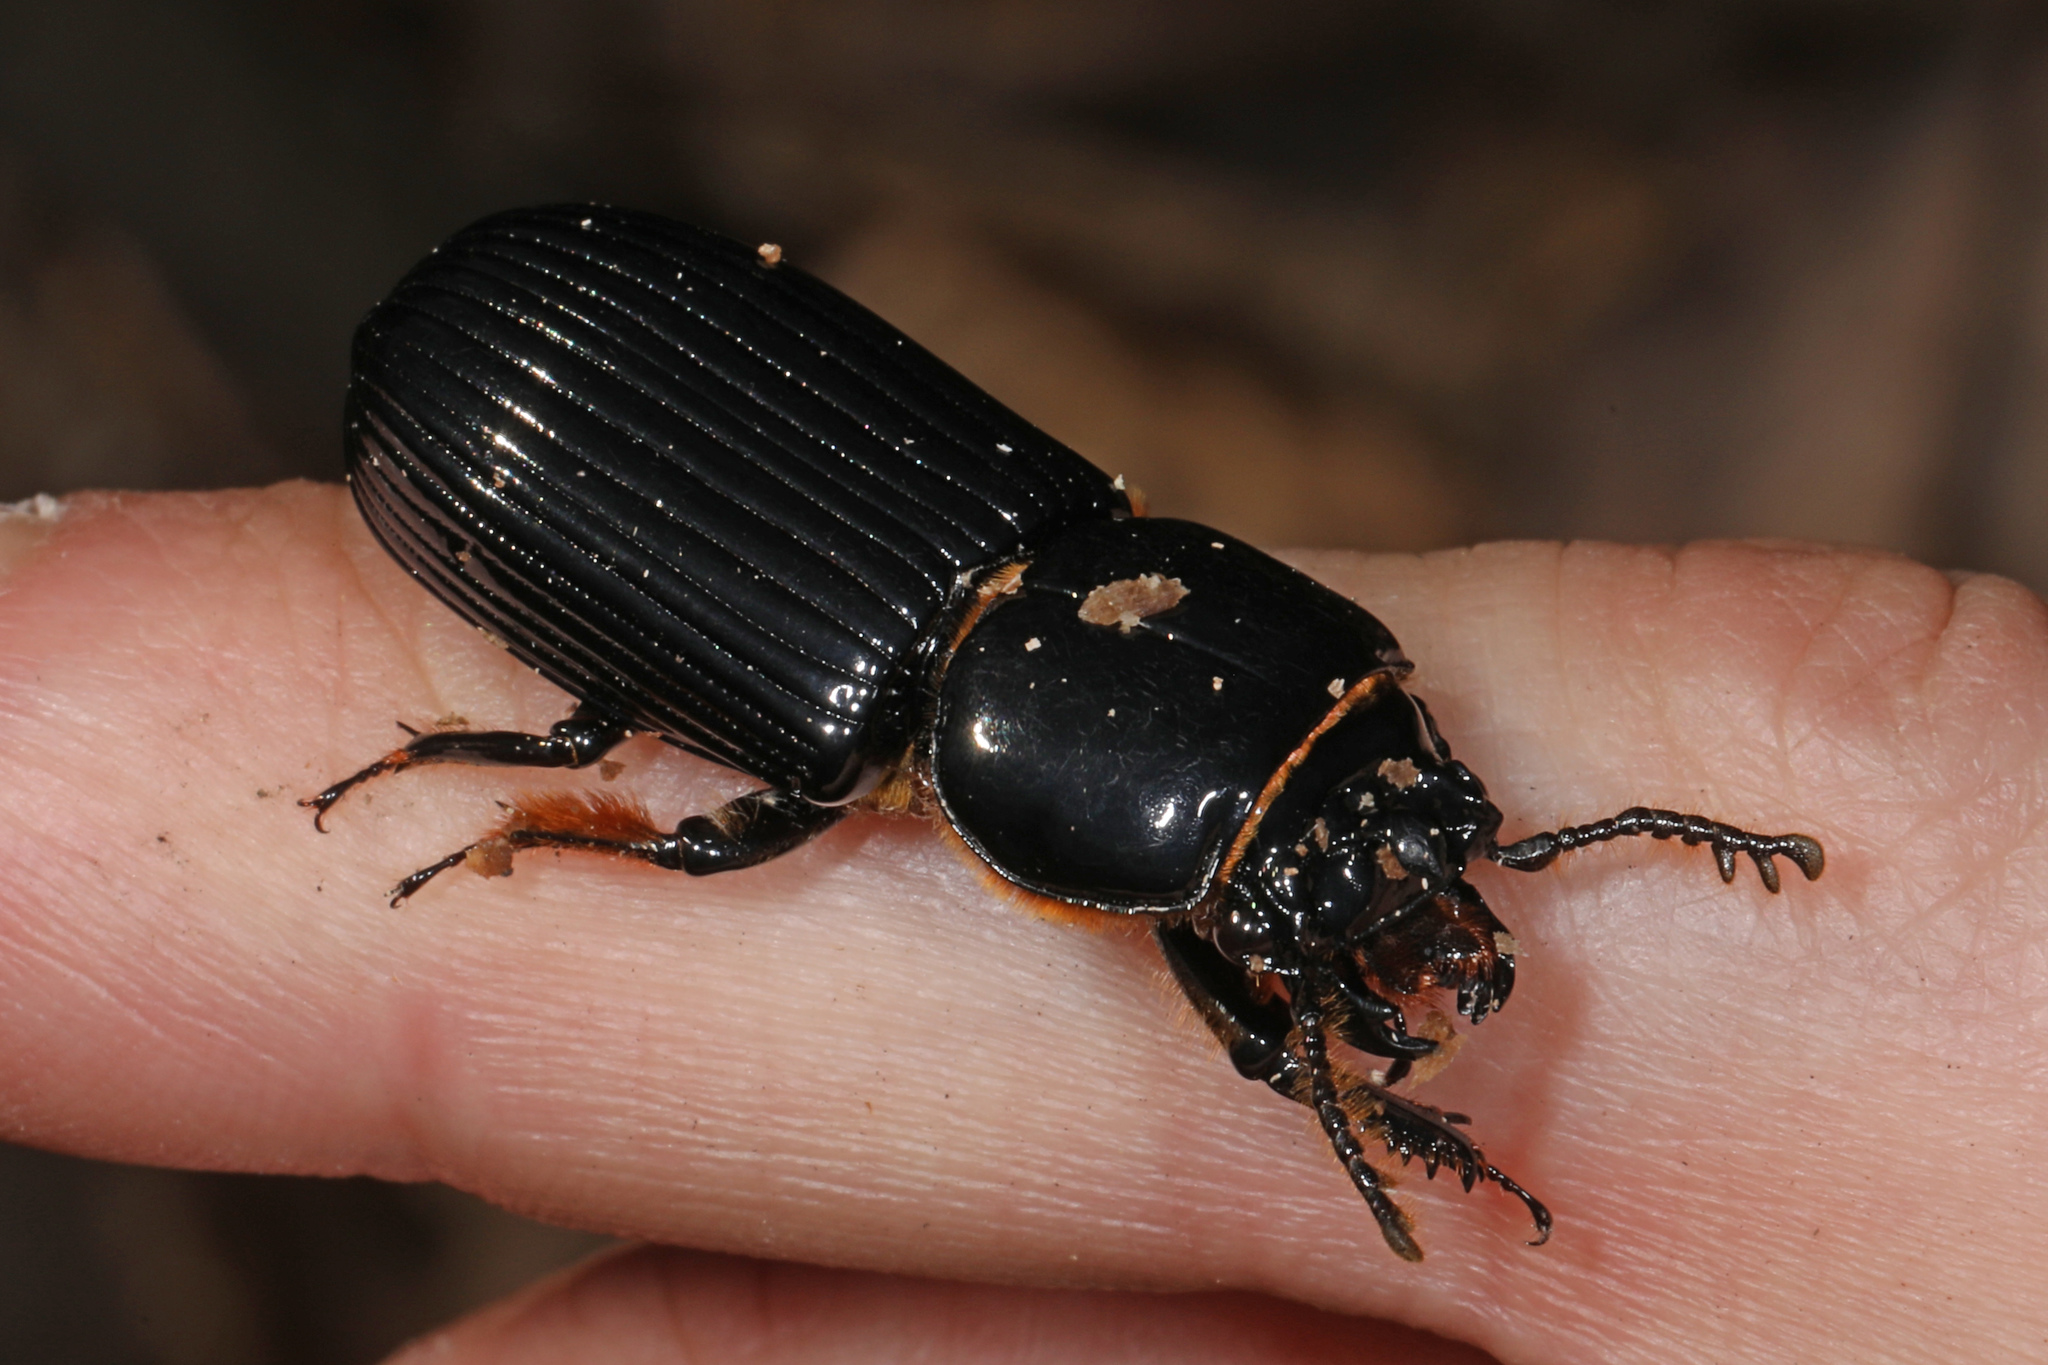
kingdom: Animalia
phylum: Arthropoda
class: Insecta
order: Coleoptera
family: Passalidae
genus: Odontotaenius
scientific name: Odontotaenius disjunctus
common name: Patent leather beetle
